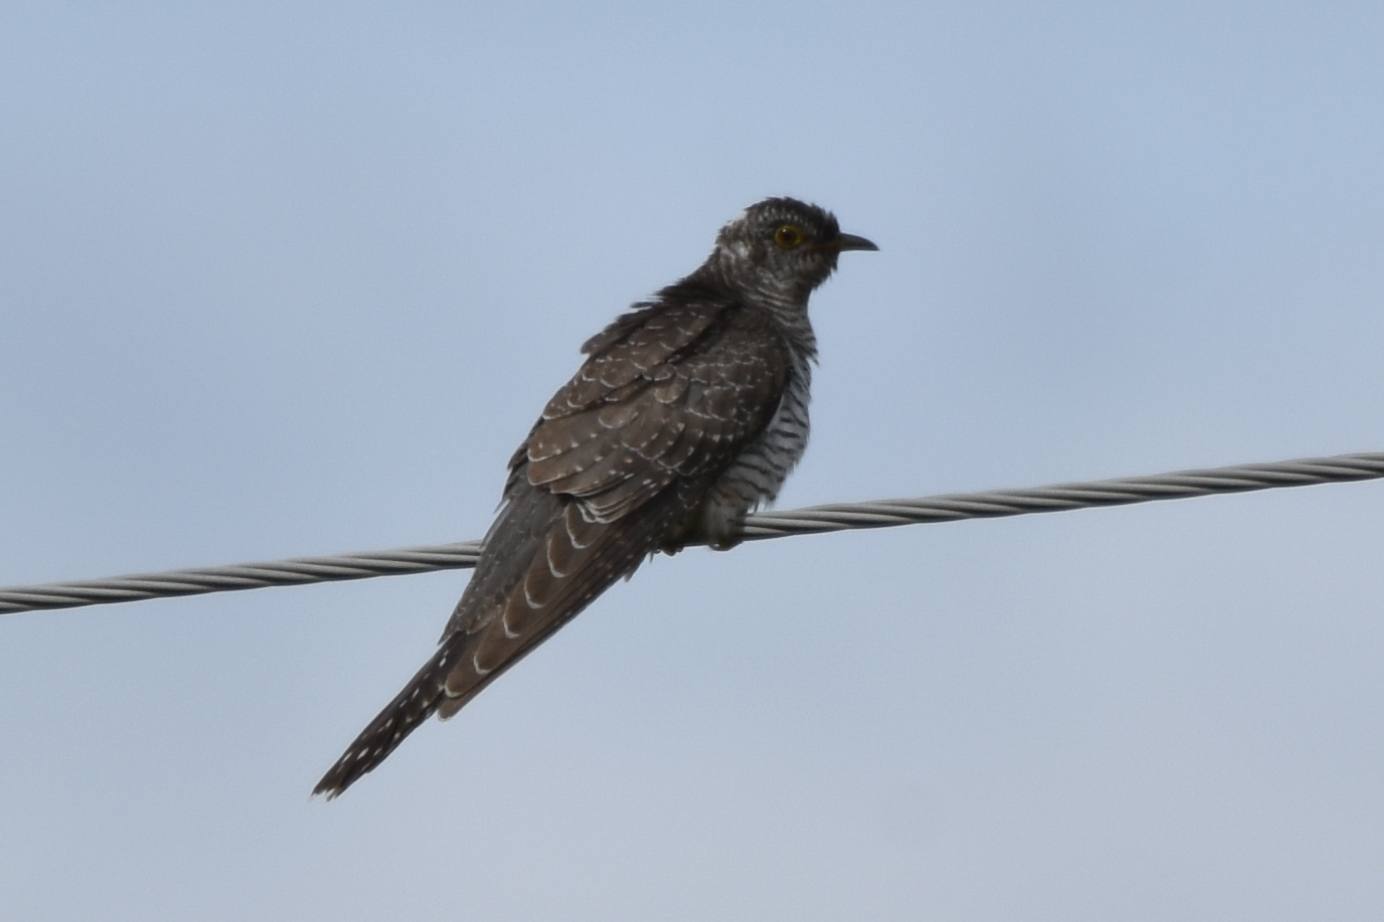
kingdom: Animalia
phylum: Chordata
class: Aves
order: Cuculiformes
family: Cuculidae
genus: Cuculus
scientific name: Cuculus canorus
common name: Common cuckoo
